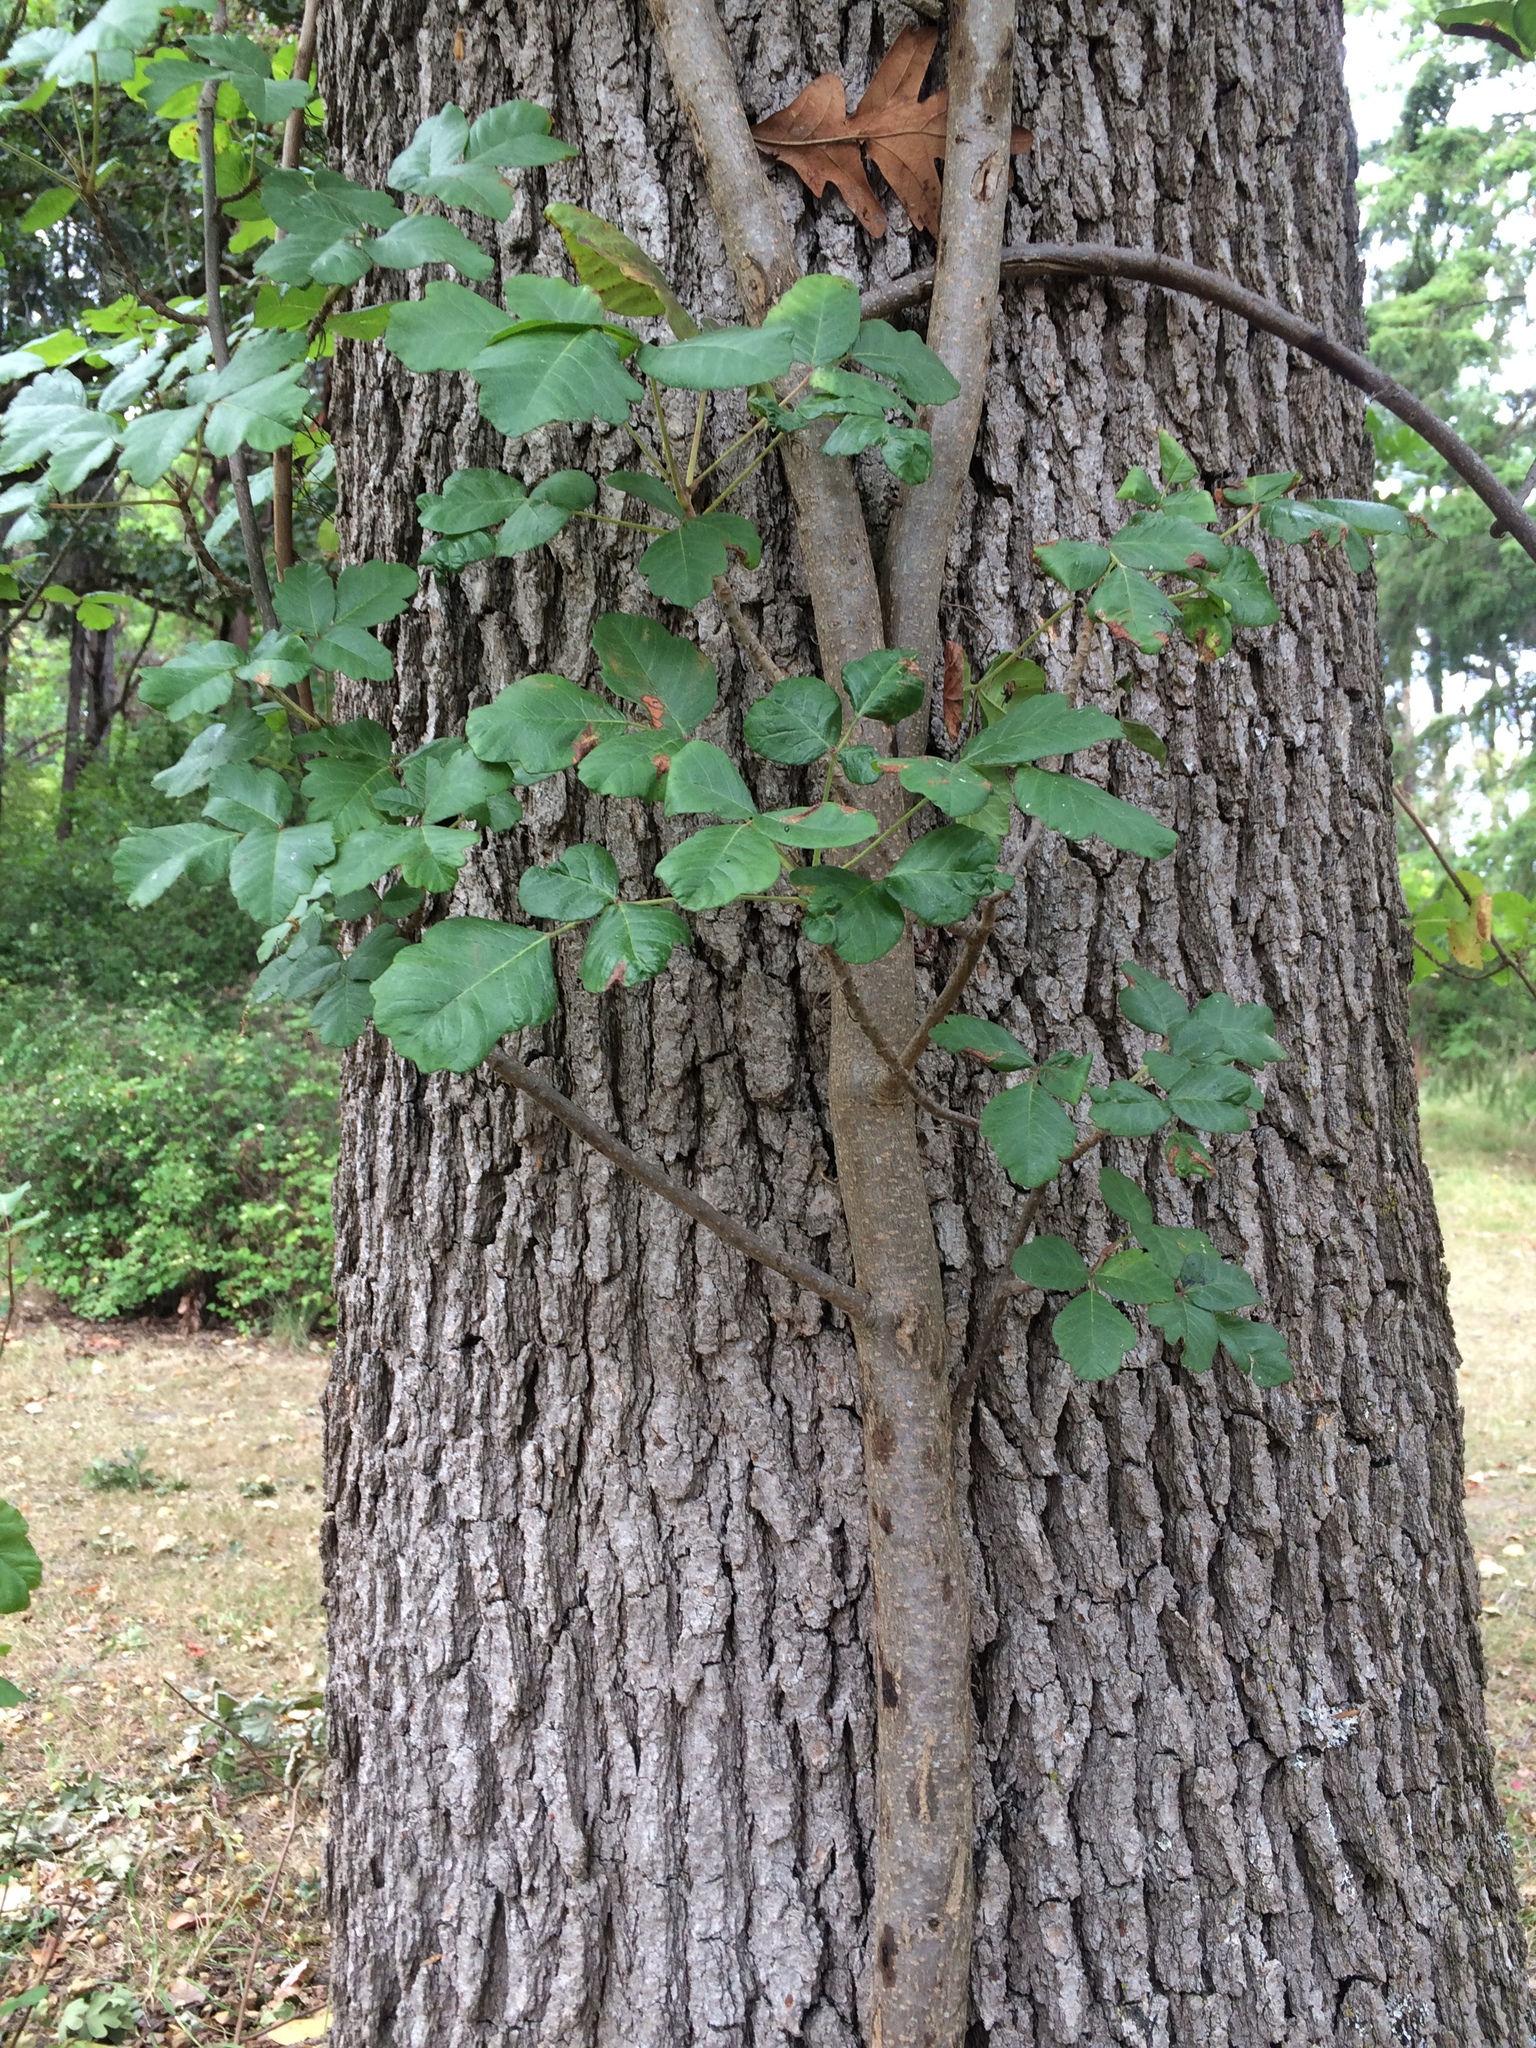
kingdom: Plantae
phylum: Tracheophyta
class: Magnoliopsida
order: Sapindales
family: Anacardiaceae
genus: Toxicodendron
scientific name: Toxicodendron diversilobum
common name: Pacific poison-oak
